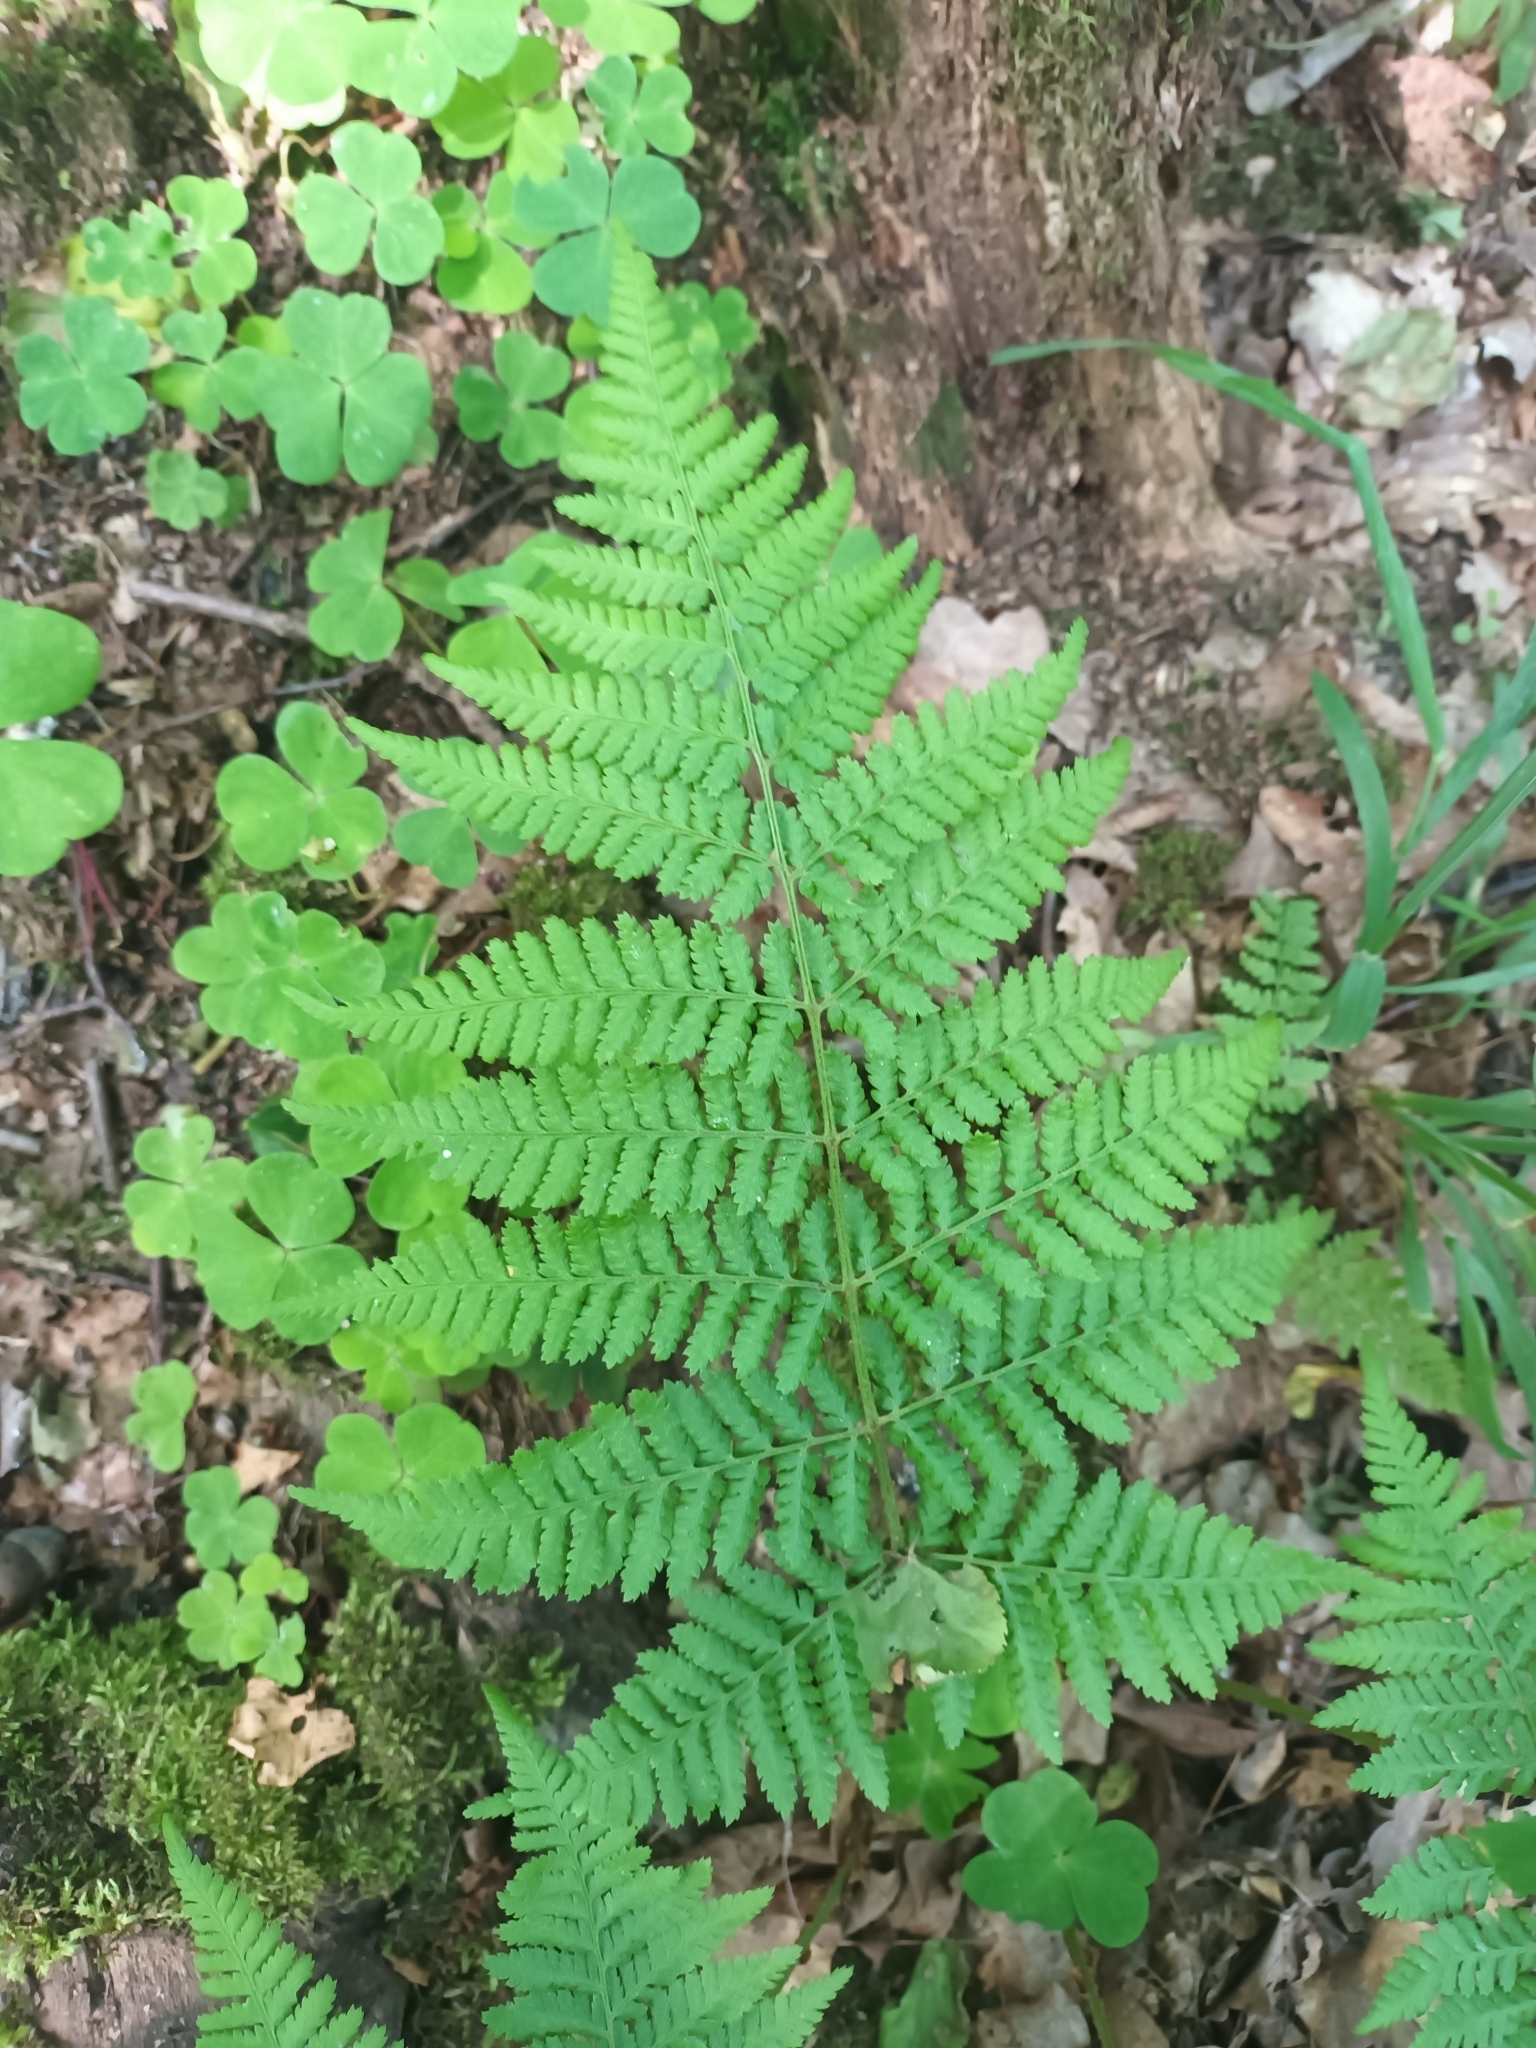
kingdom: Plantae
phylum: Tracheophyta
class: Polypodiopsida
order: Polypodiales
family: Dryopteridaceae
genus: Dryopteris
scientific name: Dryopteris dilatata
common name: Broad buckler-fern
